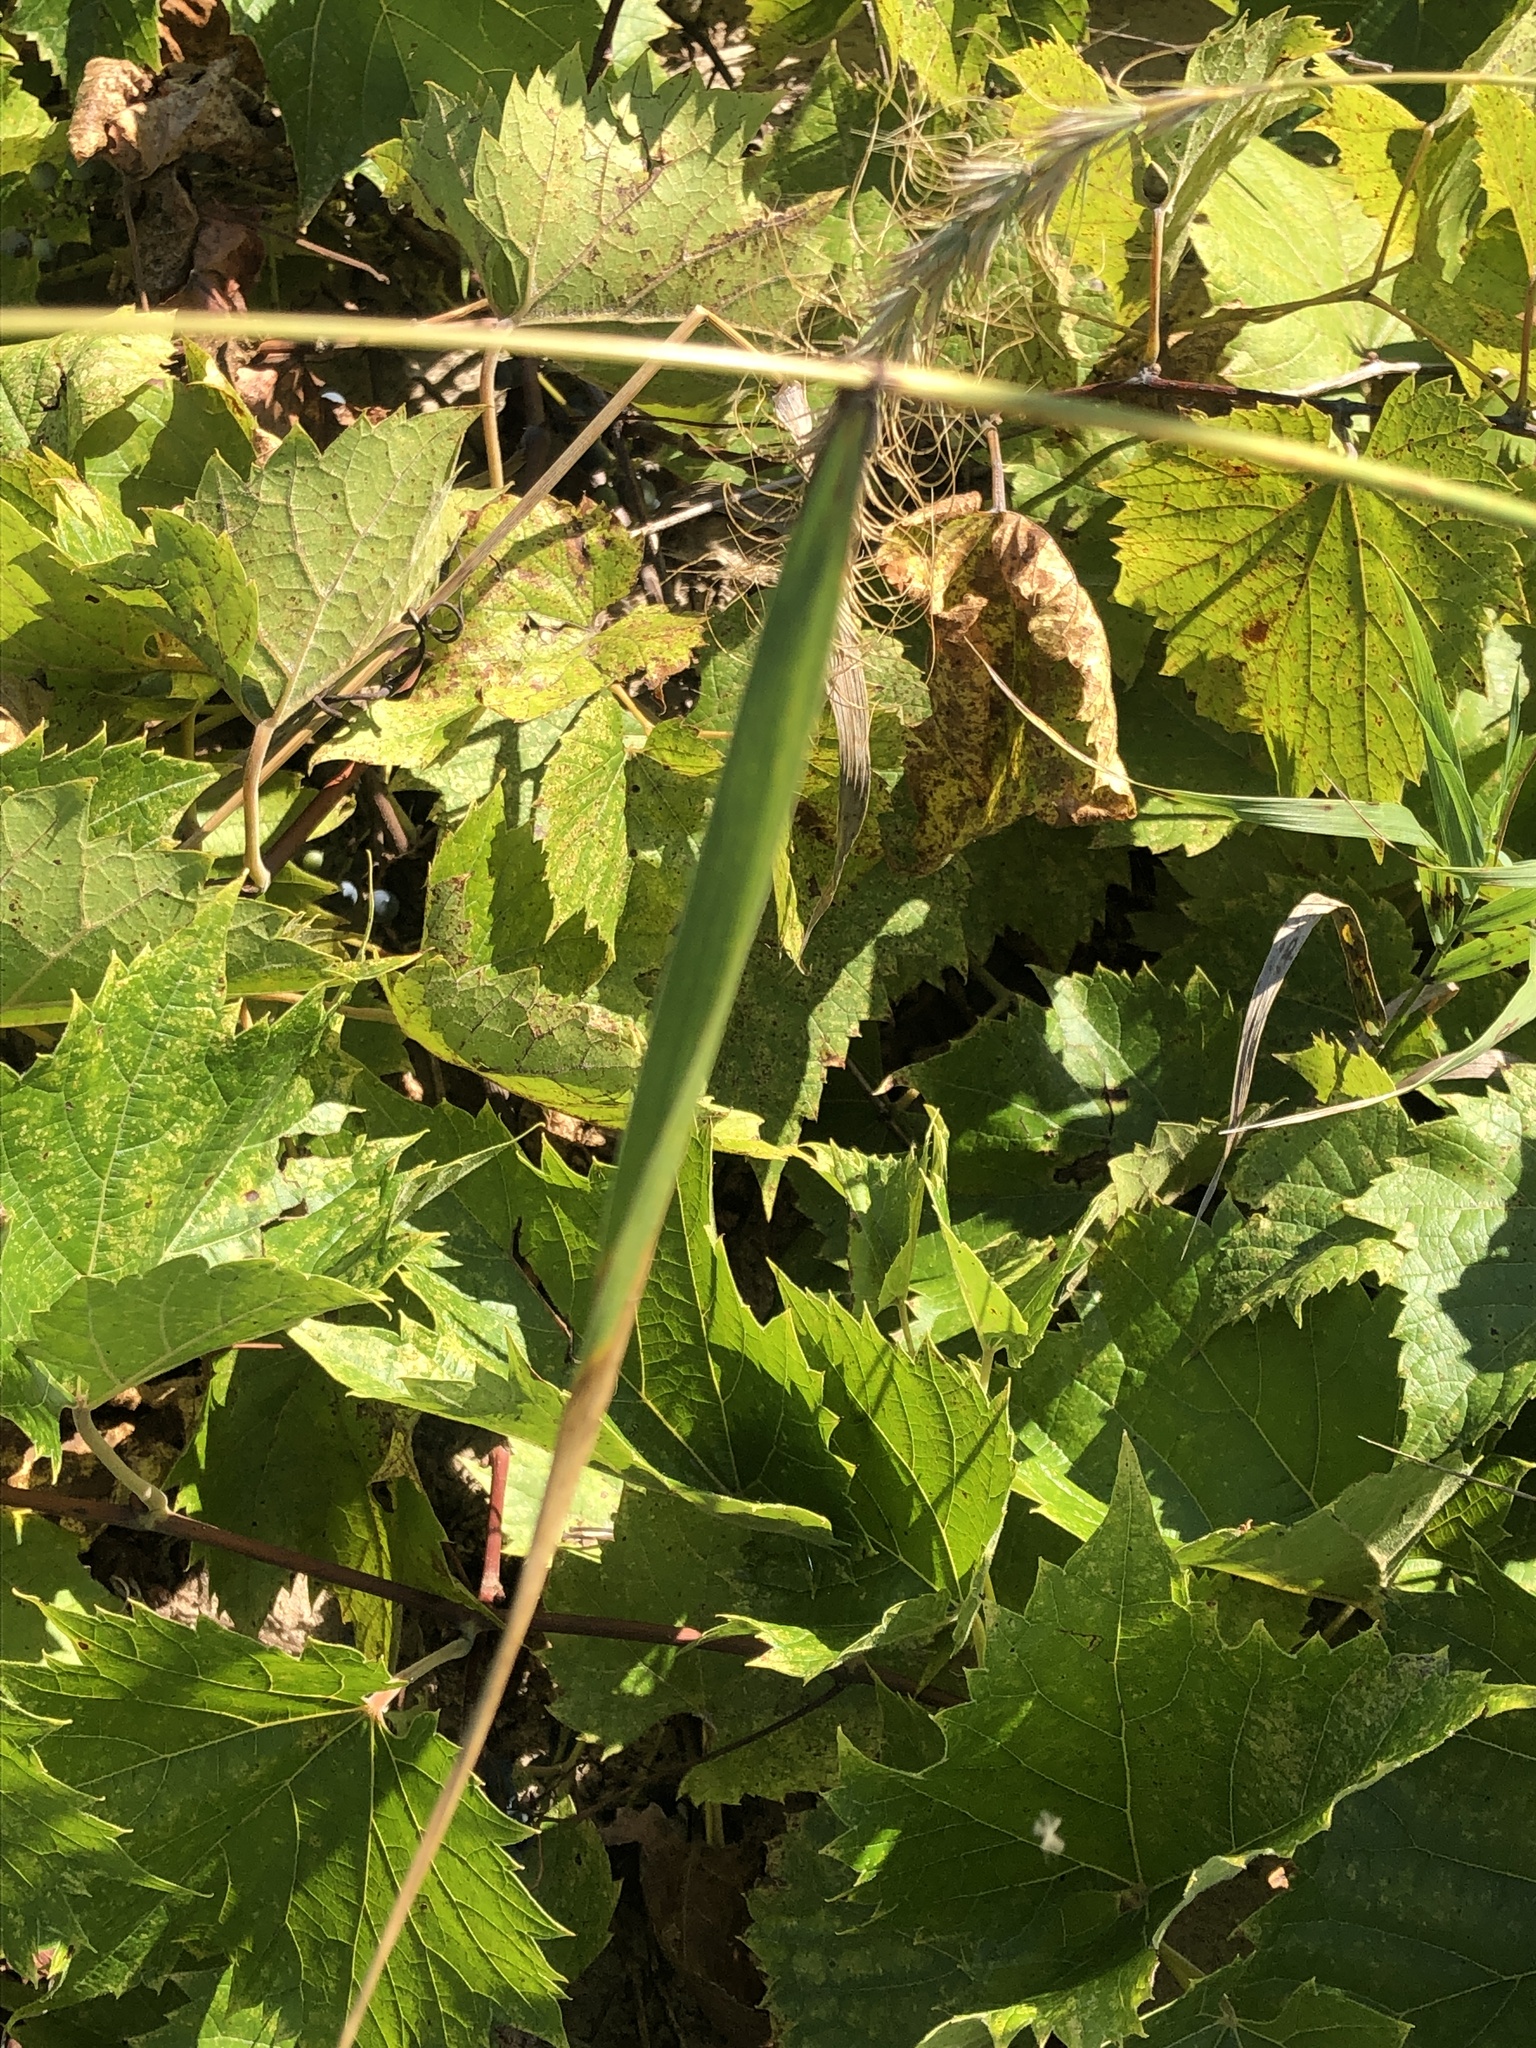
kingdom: Plantae
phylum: Tracheophyta
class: Liliopsida
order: Poales
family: Poaceae
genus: Elymus
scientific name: Elymus canadensis
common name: Canada wild rye
